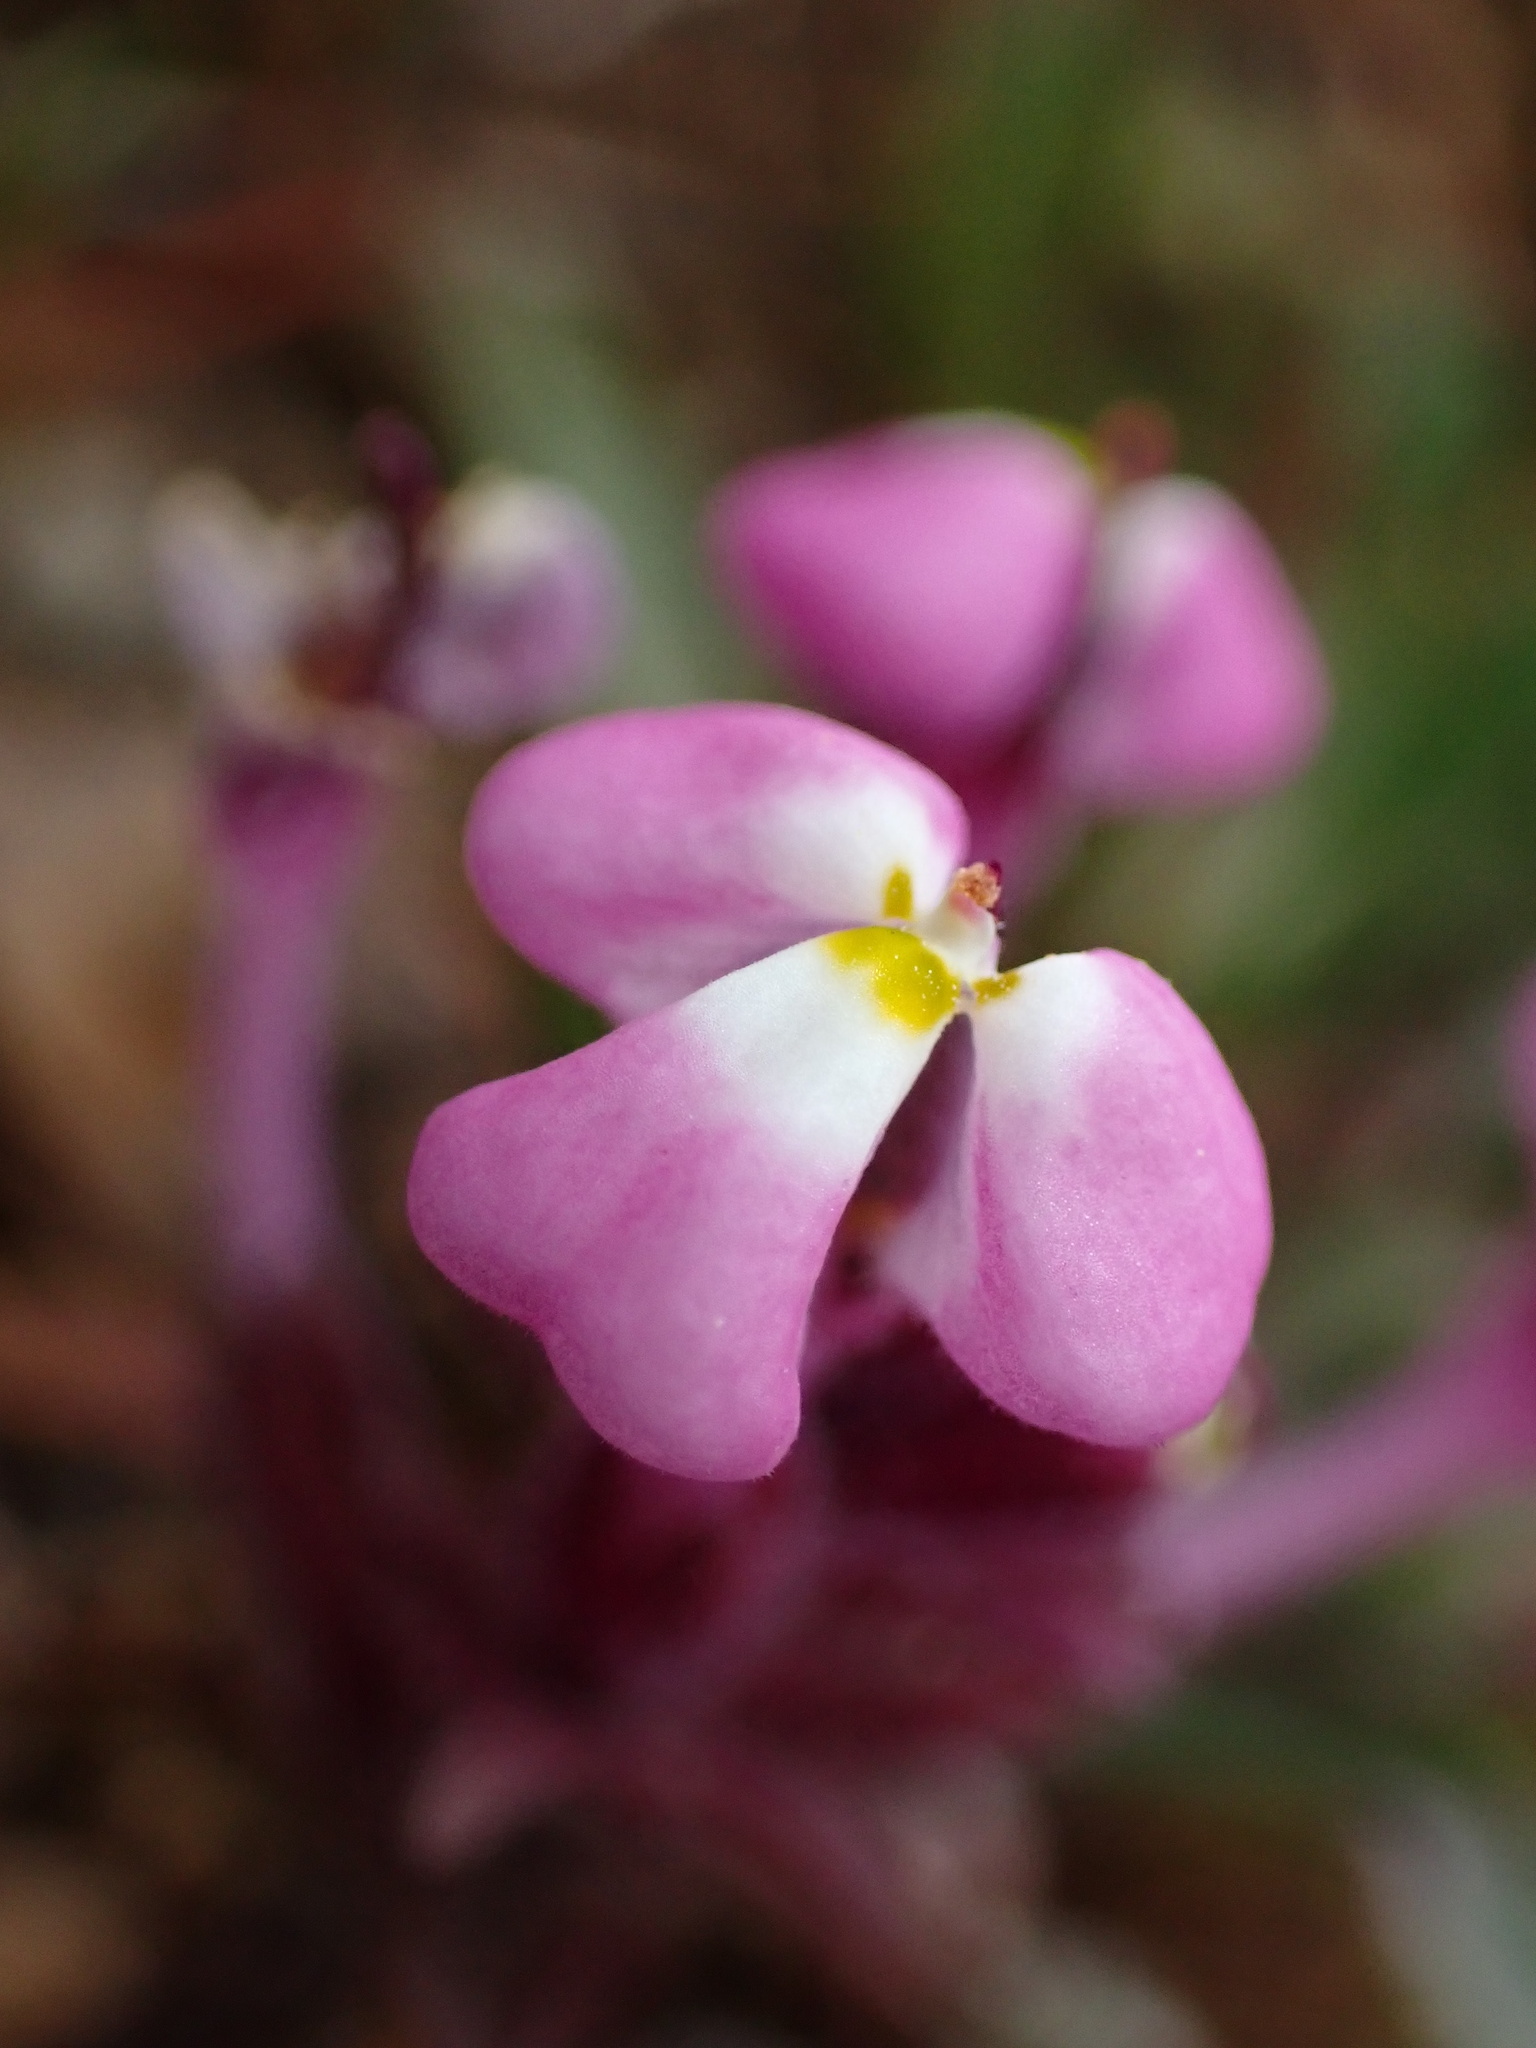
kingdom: Plantae
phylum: Tracheophyta
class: Magnoliopsida
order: Lamiales
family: Orobanchaceae
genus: Triphysaria
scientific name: Triphysaria eriantha
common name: Johnny-tuck
